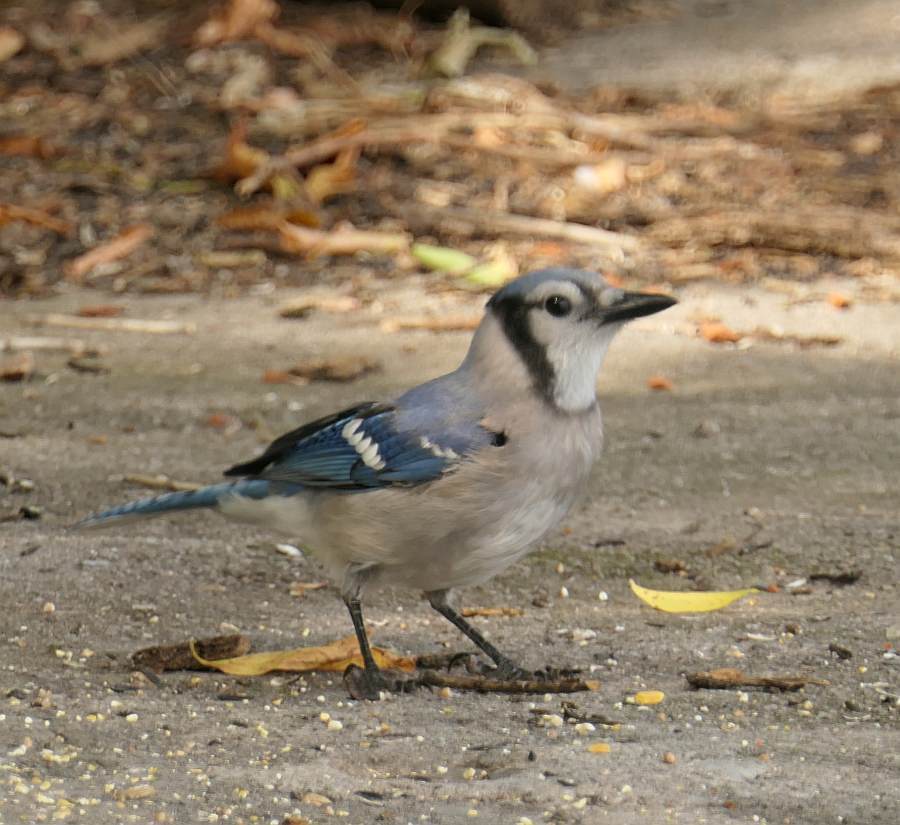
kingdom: Animalia
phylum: Chordata
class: Aves
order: Passeriformes
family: Corvidae
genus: Cyanocitta
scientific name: Cyanocitta cristata
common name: Blue jay
